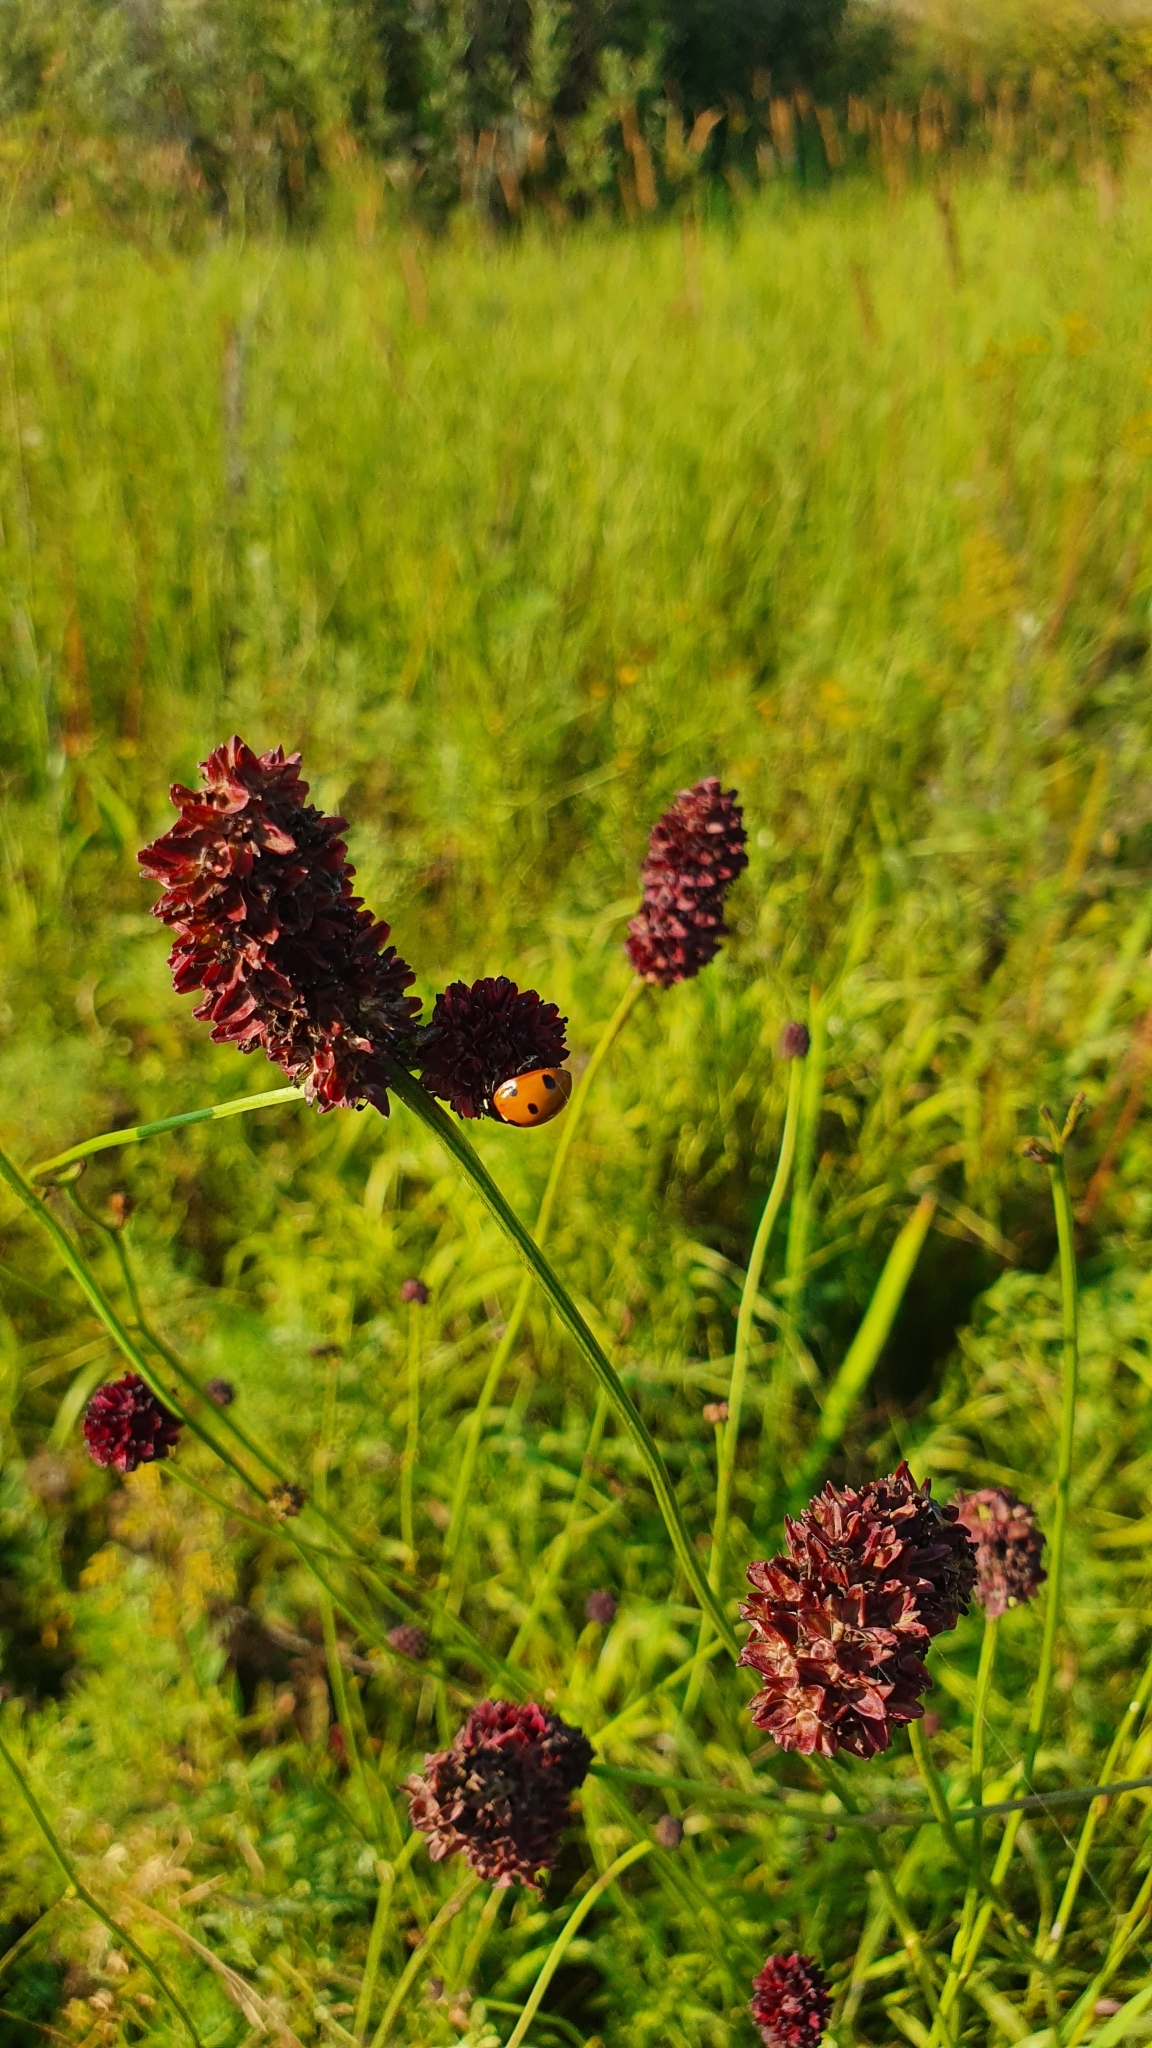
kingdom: Plantae
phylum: Tracheophyta
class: Magnoliopsida
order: Rosales
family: Rosaceae
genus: Sanguisorba
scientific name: Sanguisorba officinalis
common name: Great burnet
